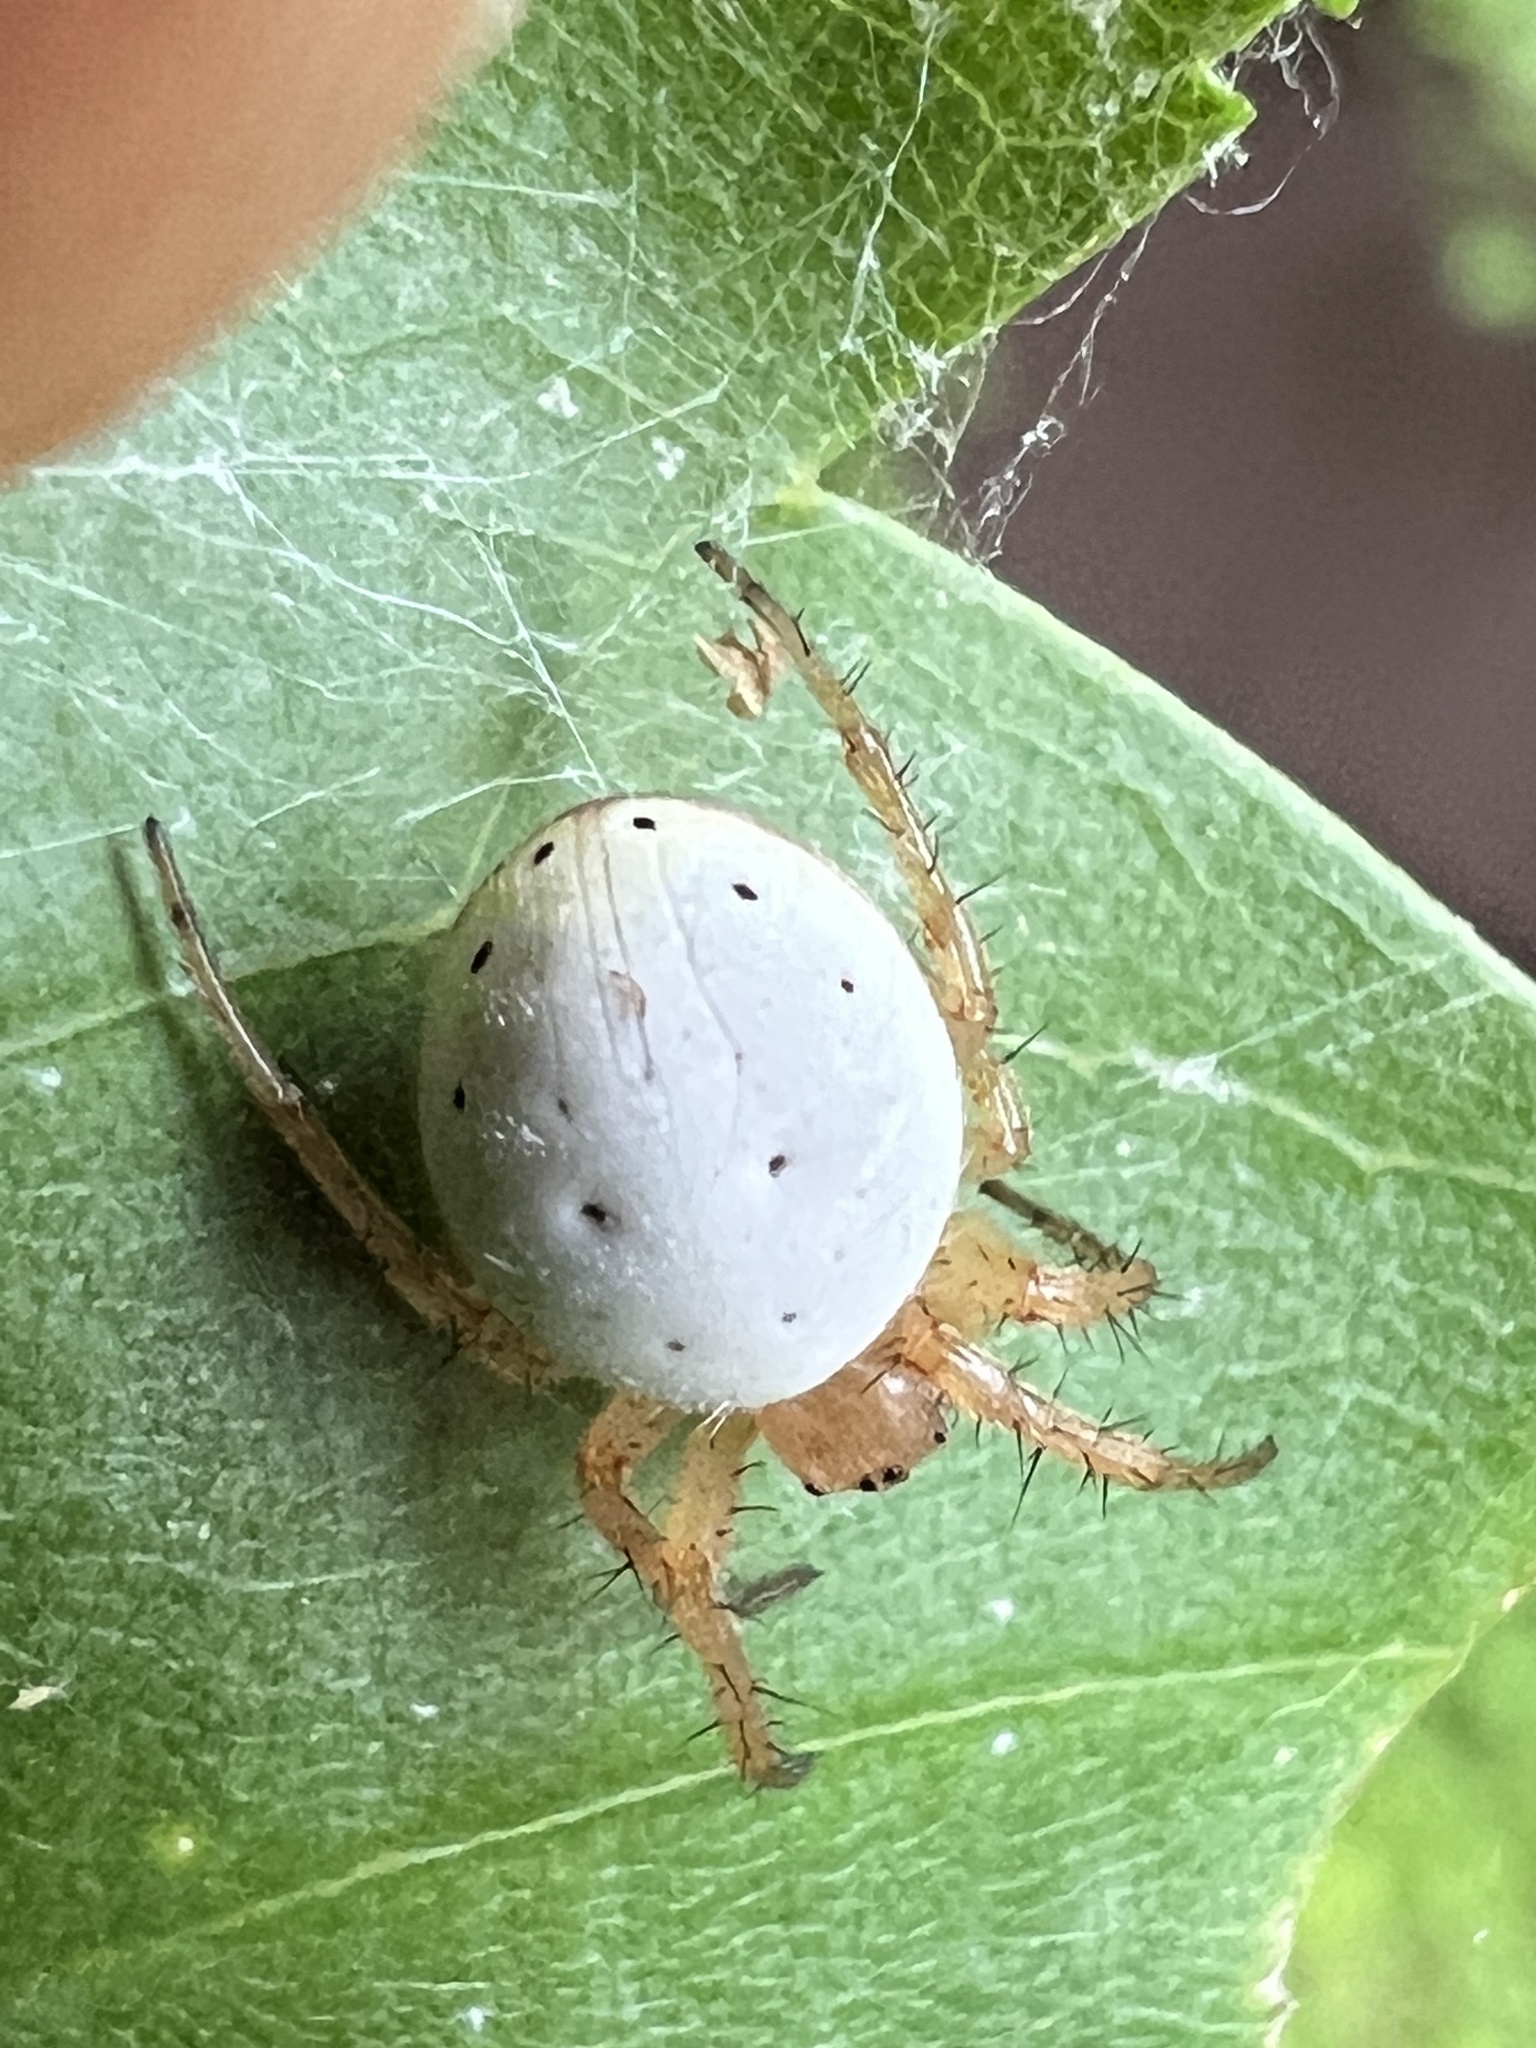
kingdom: Animalia
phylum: Arthropoda
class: Arachnida
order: Araneae
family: Araneidae
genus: Araniella
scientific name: Araniella displicata
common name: Sixspotted orb weaver
